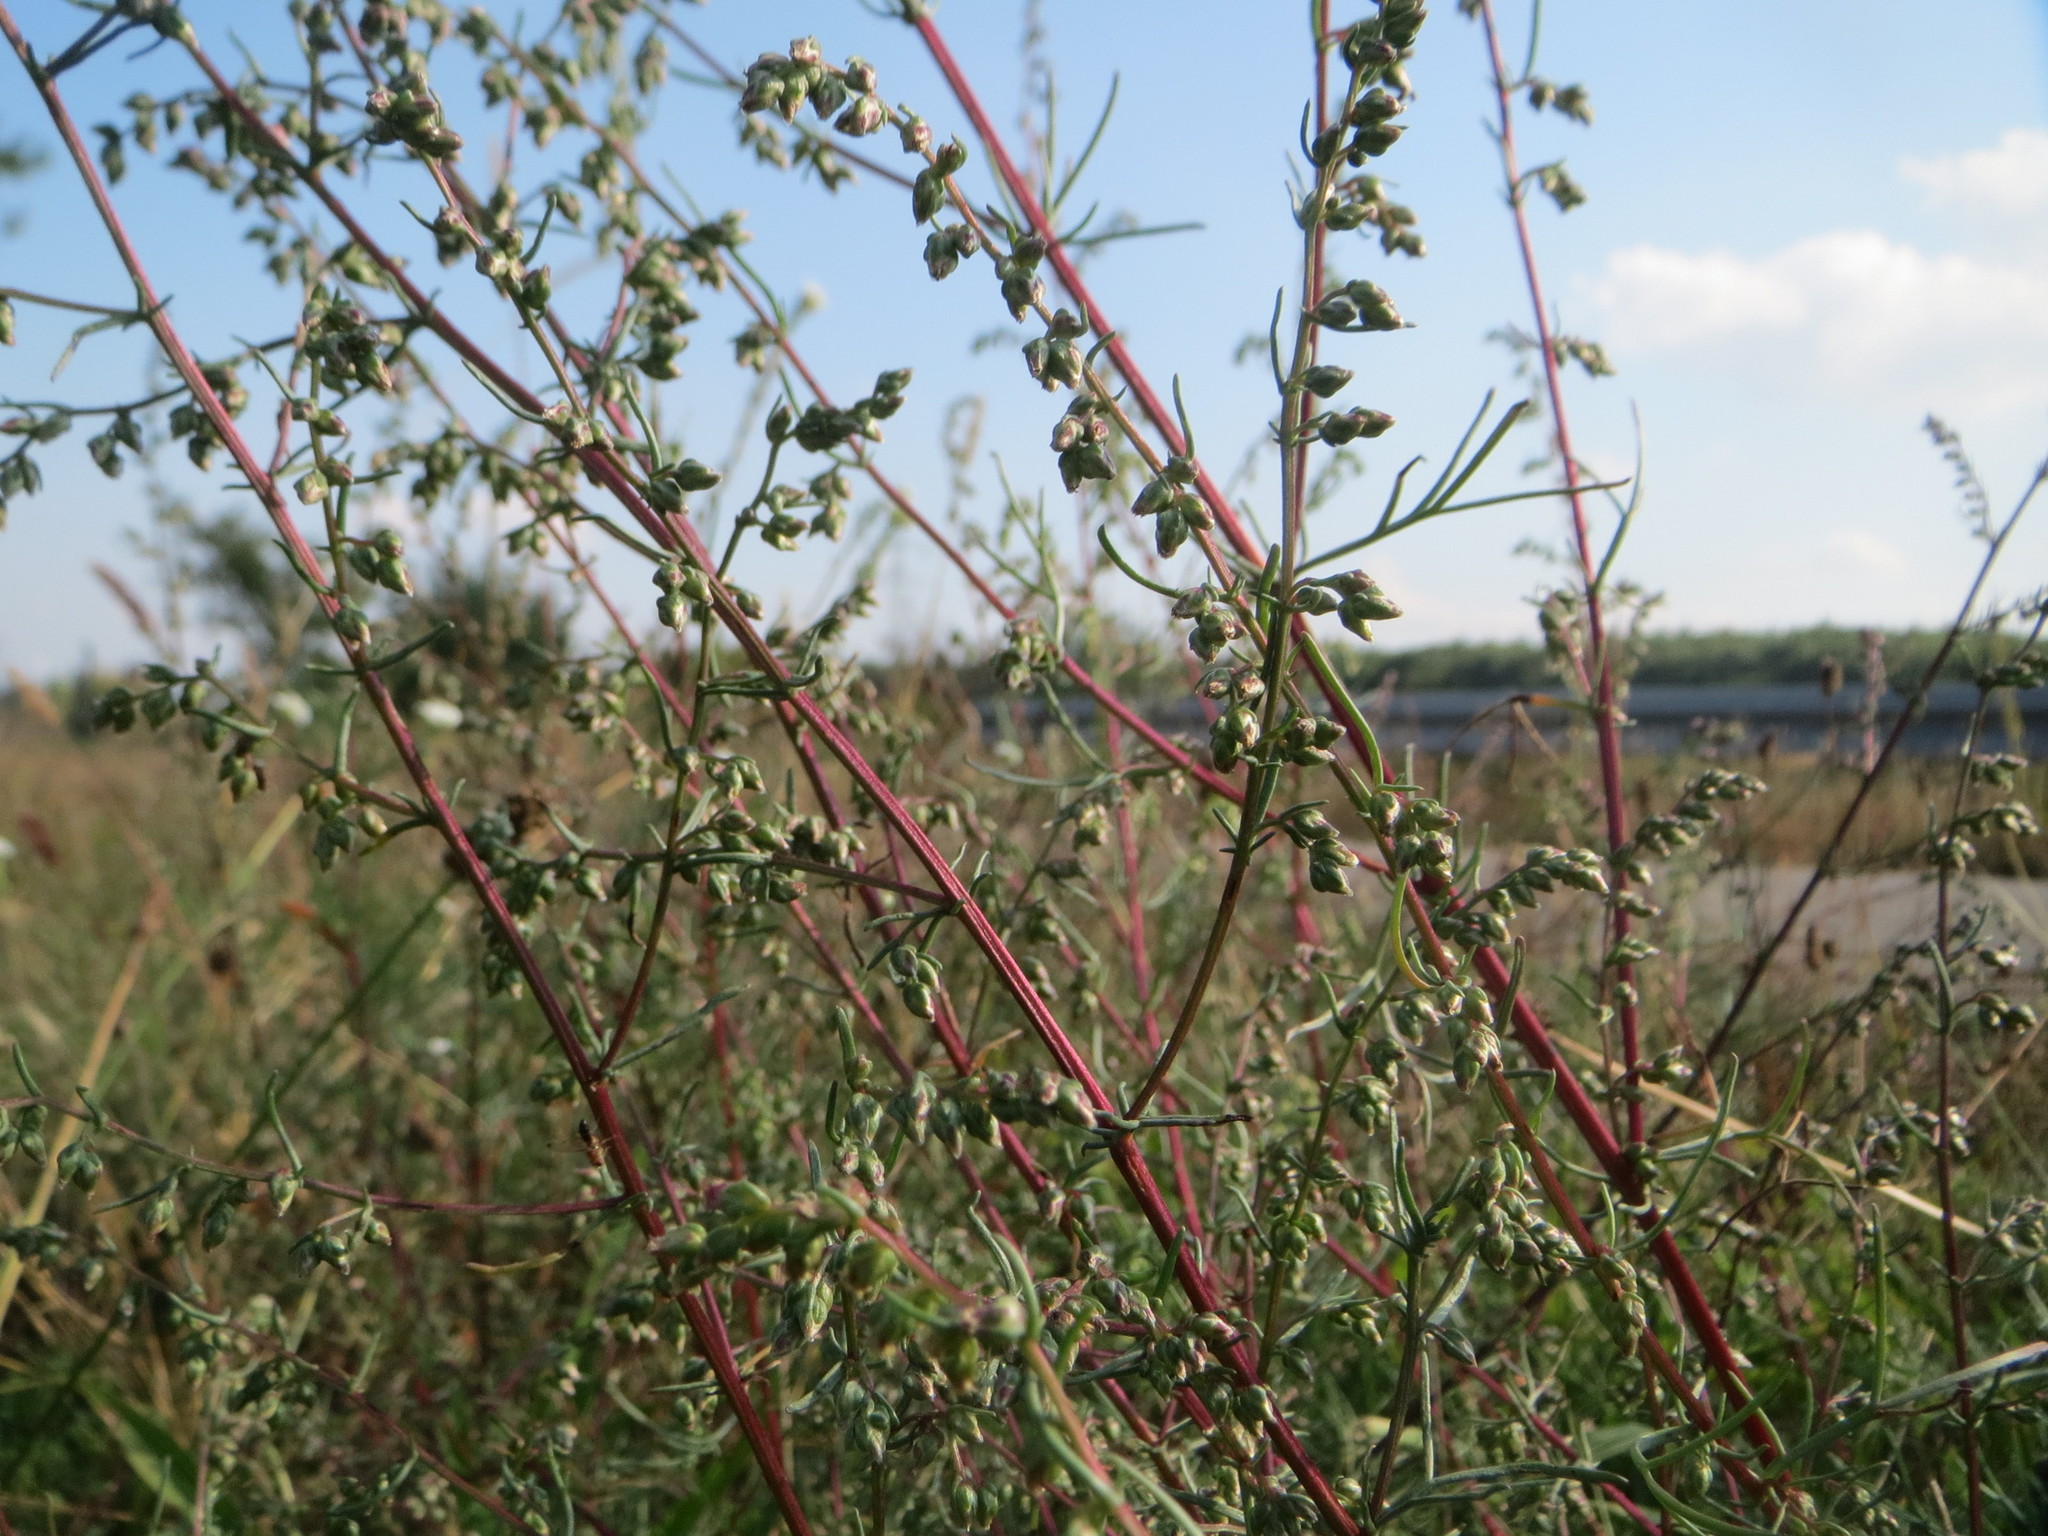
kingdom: Plantae
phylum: Tracheophyta
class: Magnoliopsida
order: Asterales
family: Asteraceae
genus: Artemisia
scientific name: Artemisia campestris
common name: Field wormwood
